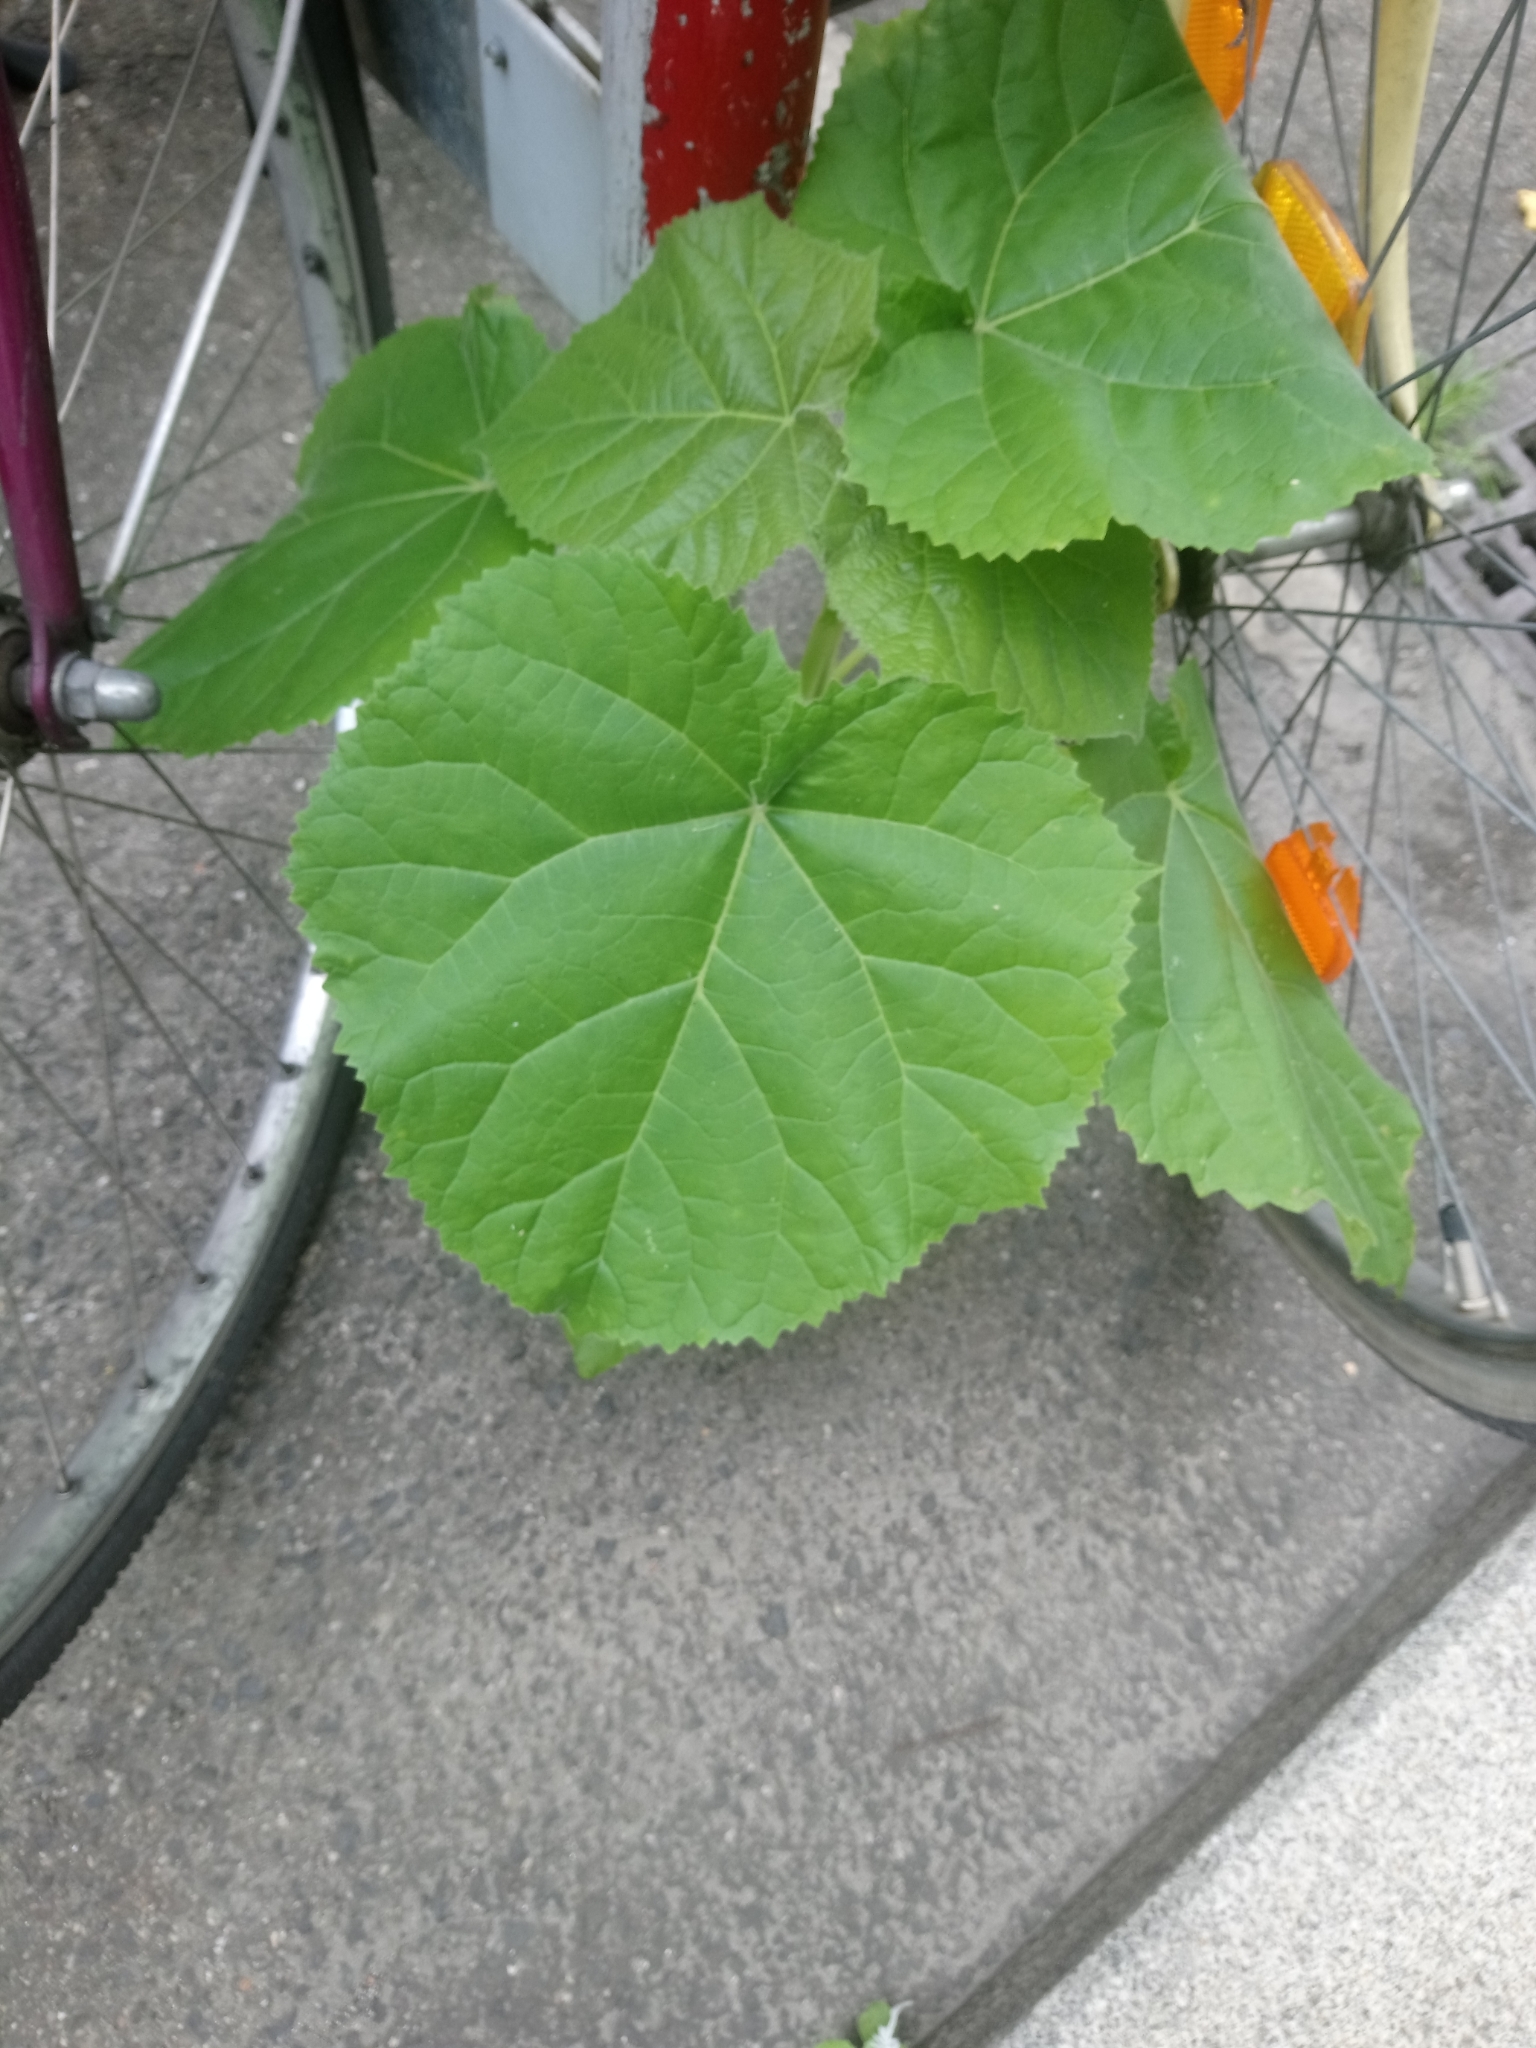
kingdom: Plantae
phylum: Tracheophyta
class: Magnoliopsida
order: Lamiales
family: Paulowniaceae
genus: Paulownia
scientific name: Paulownia tomentosa
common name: Foxglove-tree
